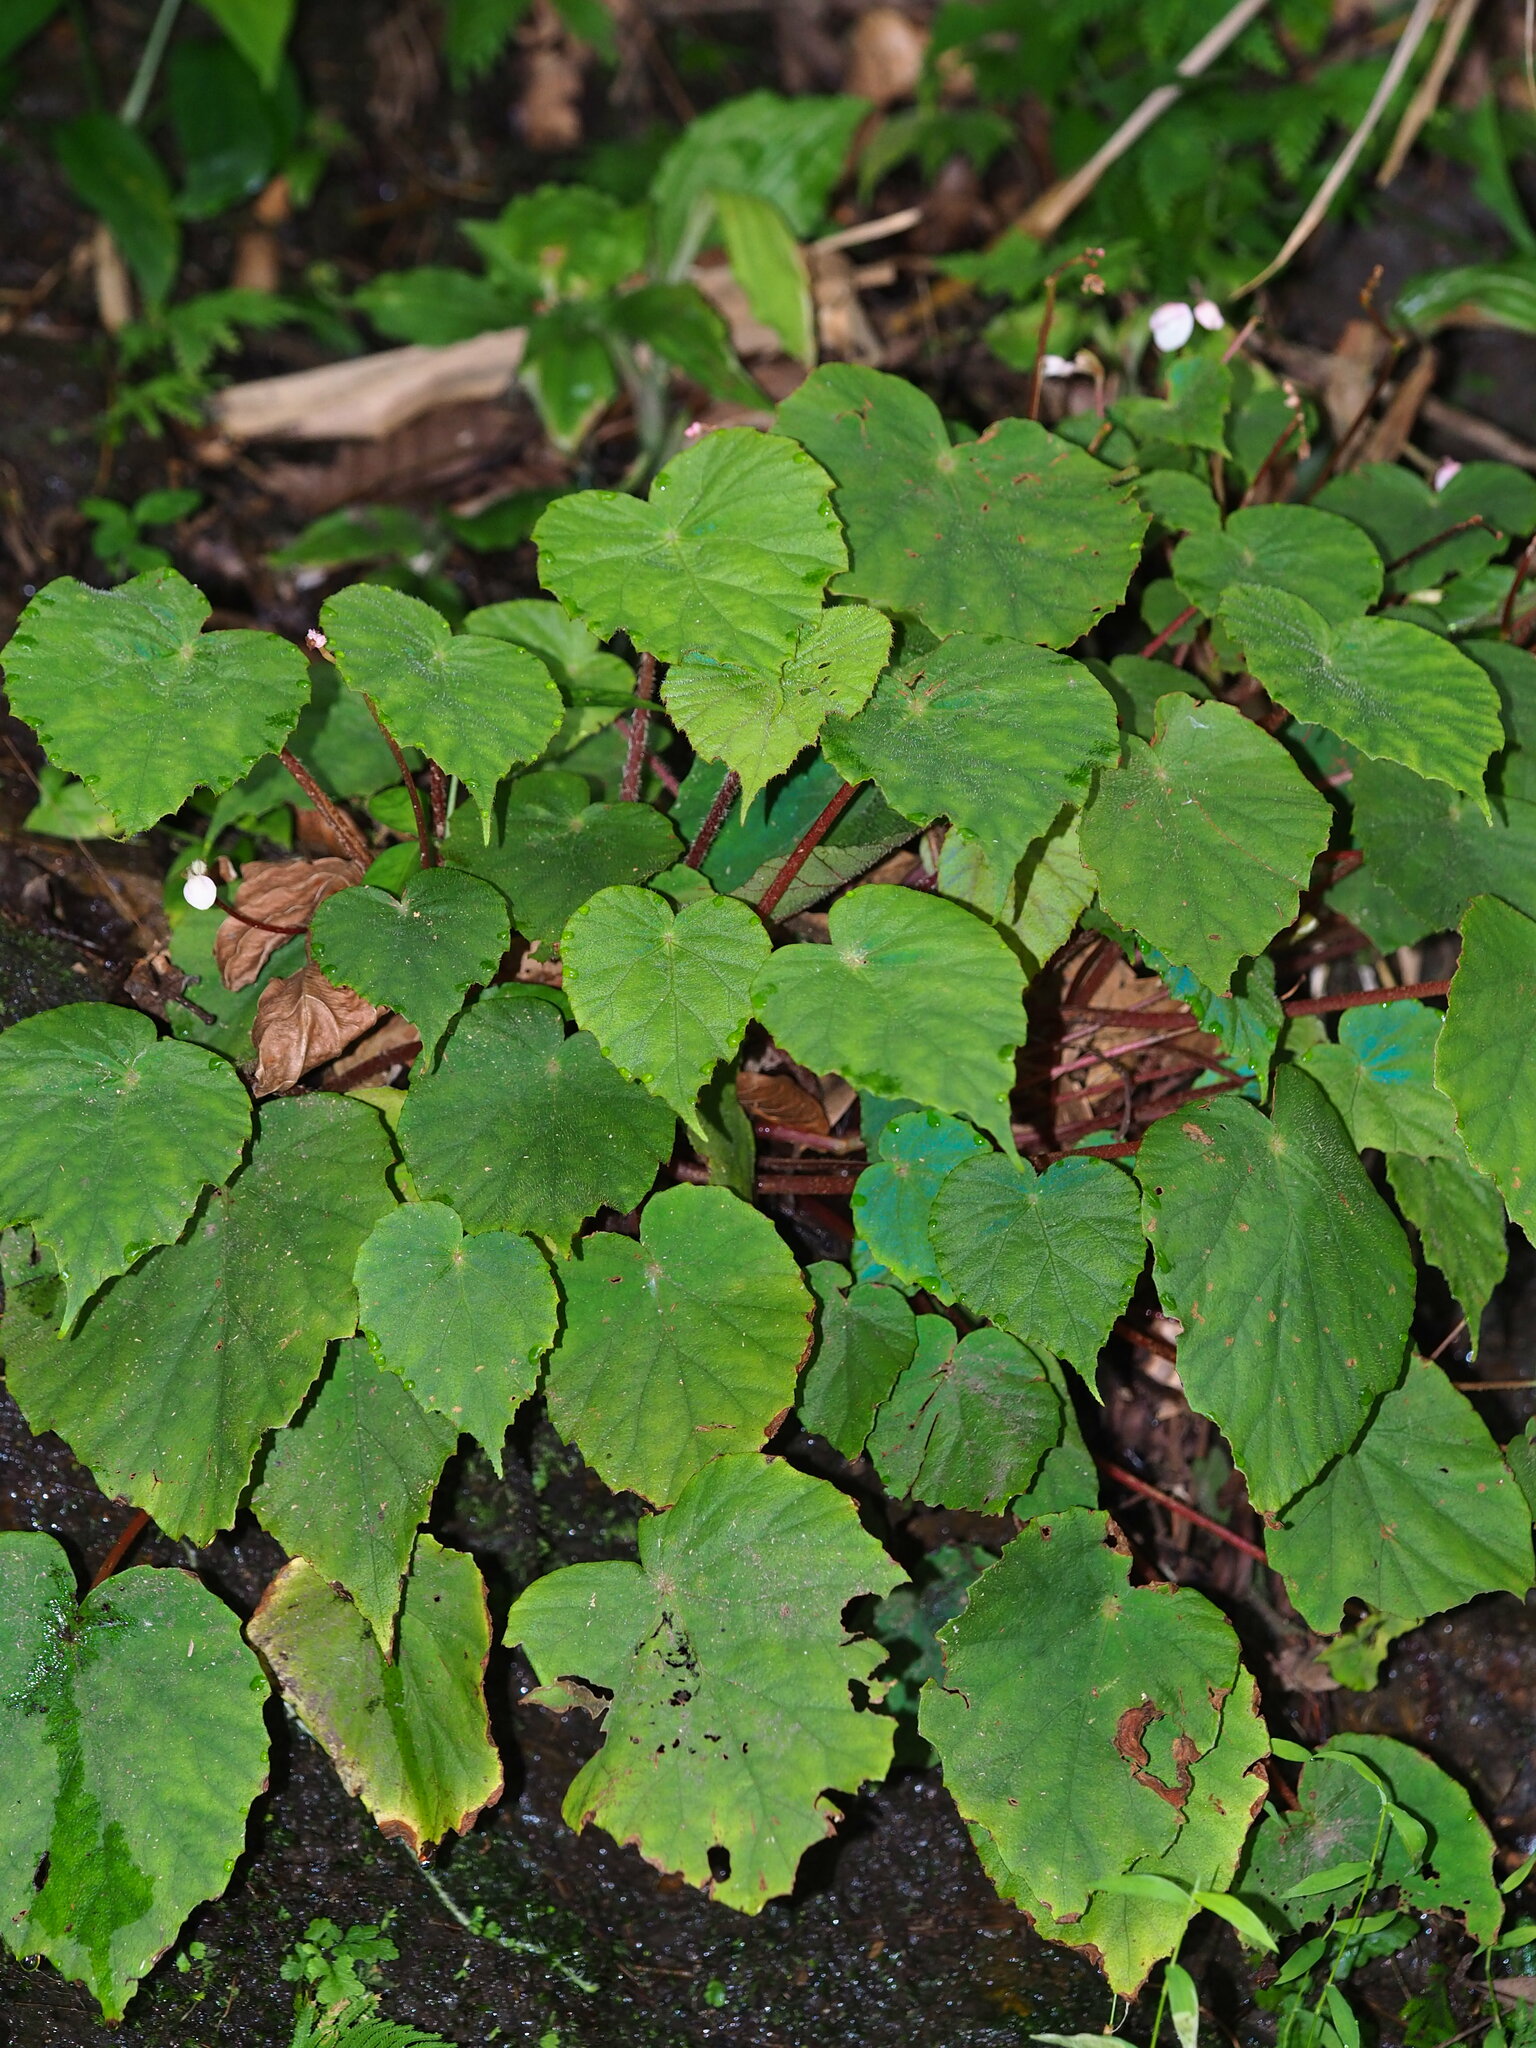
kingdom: Plantae
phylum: Tracheophyta
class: Magnoliopsida
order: Cucurbitales
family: Begoniaceae
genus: Begonia
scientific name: Begonia pinglinensis
